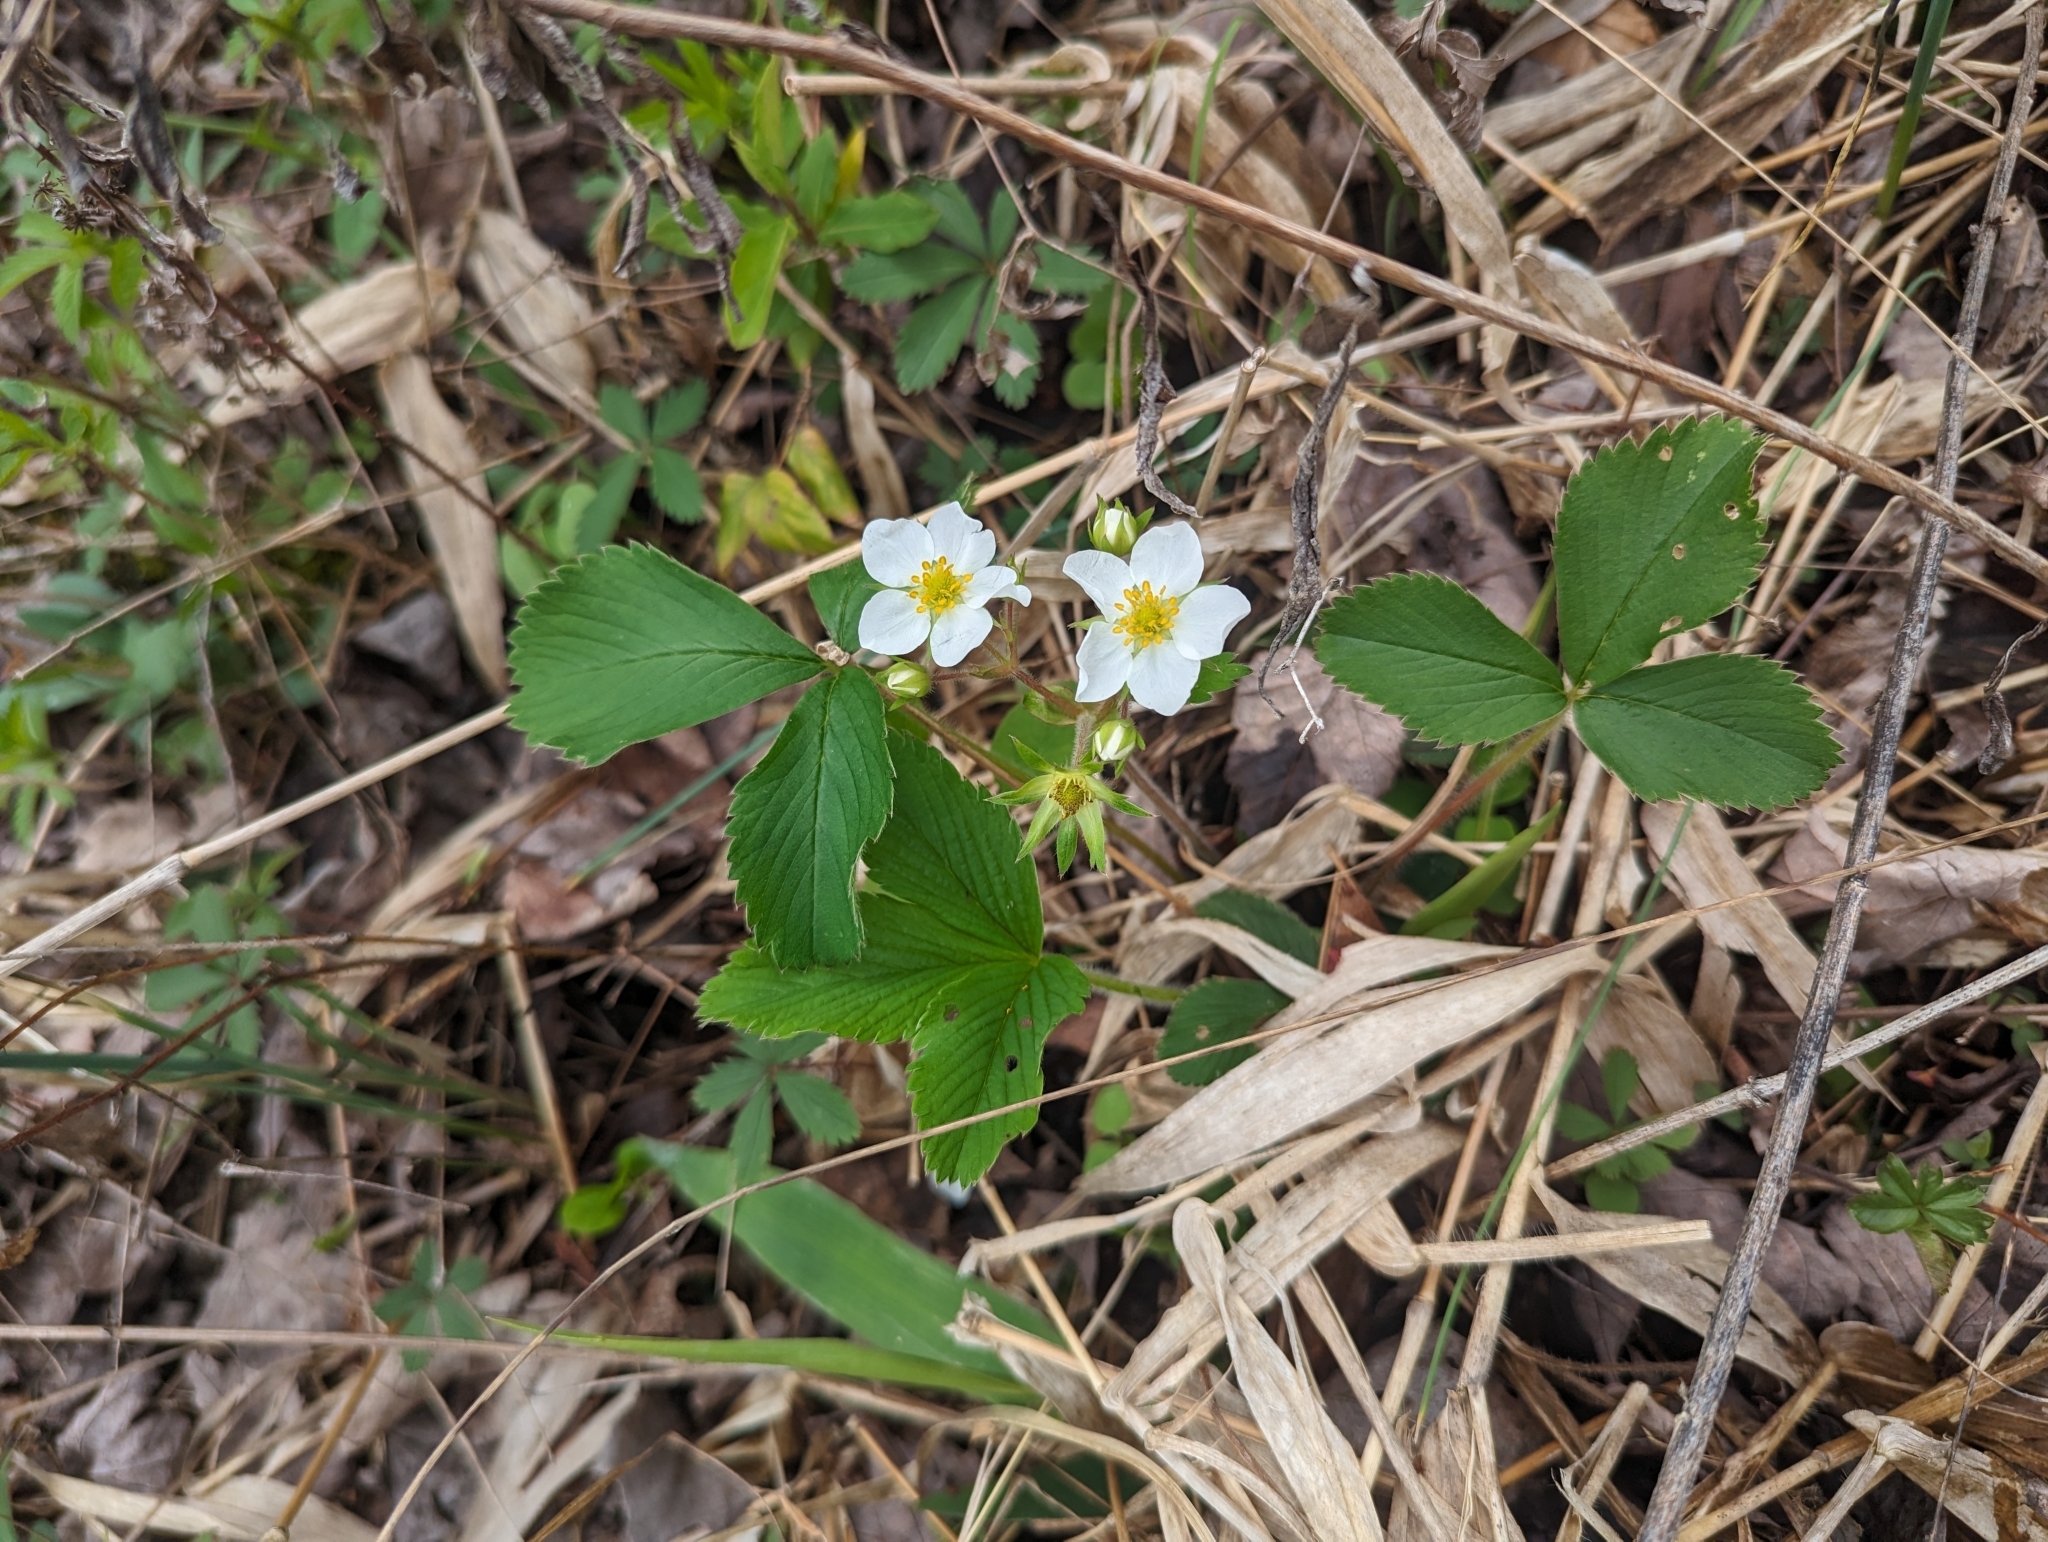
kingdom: Plantae
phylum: Tracheophyta
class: Magnoliopsida
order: Rosales
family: Rosaceae
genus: Fragaria
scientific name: Fragaria virginiana
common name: Thickleaved wild strawberry
